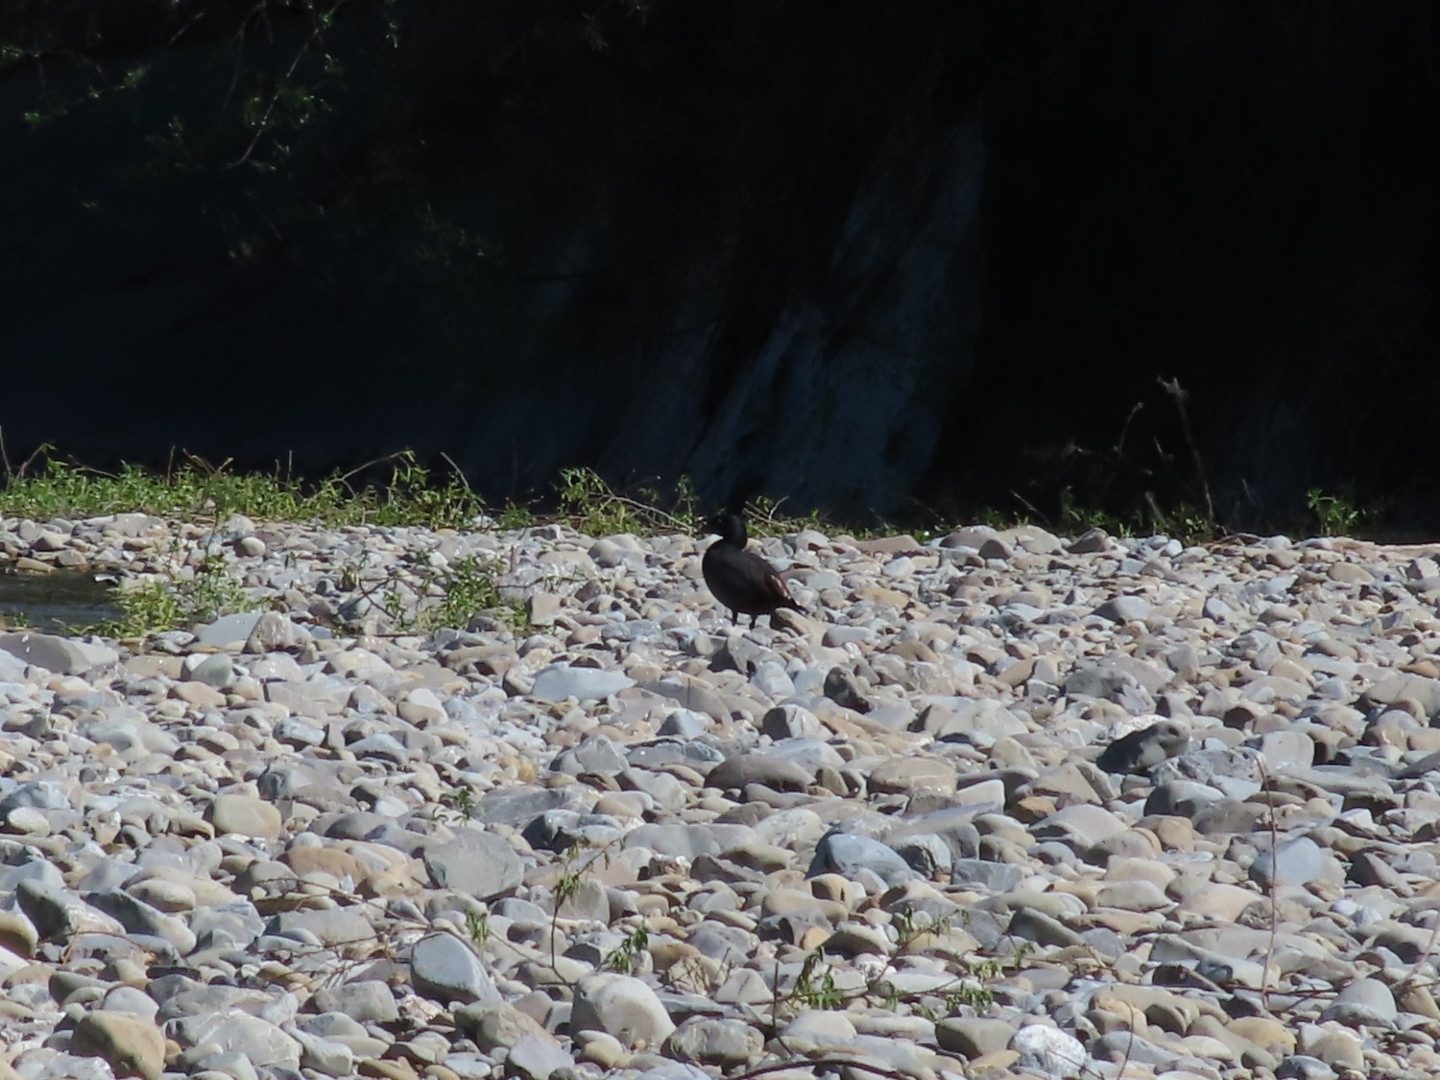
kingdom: Animalia
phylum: Chordata
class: Aves
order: Anseriformes
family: Anatidae
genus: Tadorna
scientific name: Tadorna variegata
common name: Paradise shelduck
